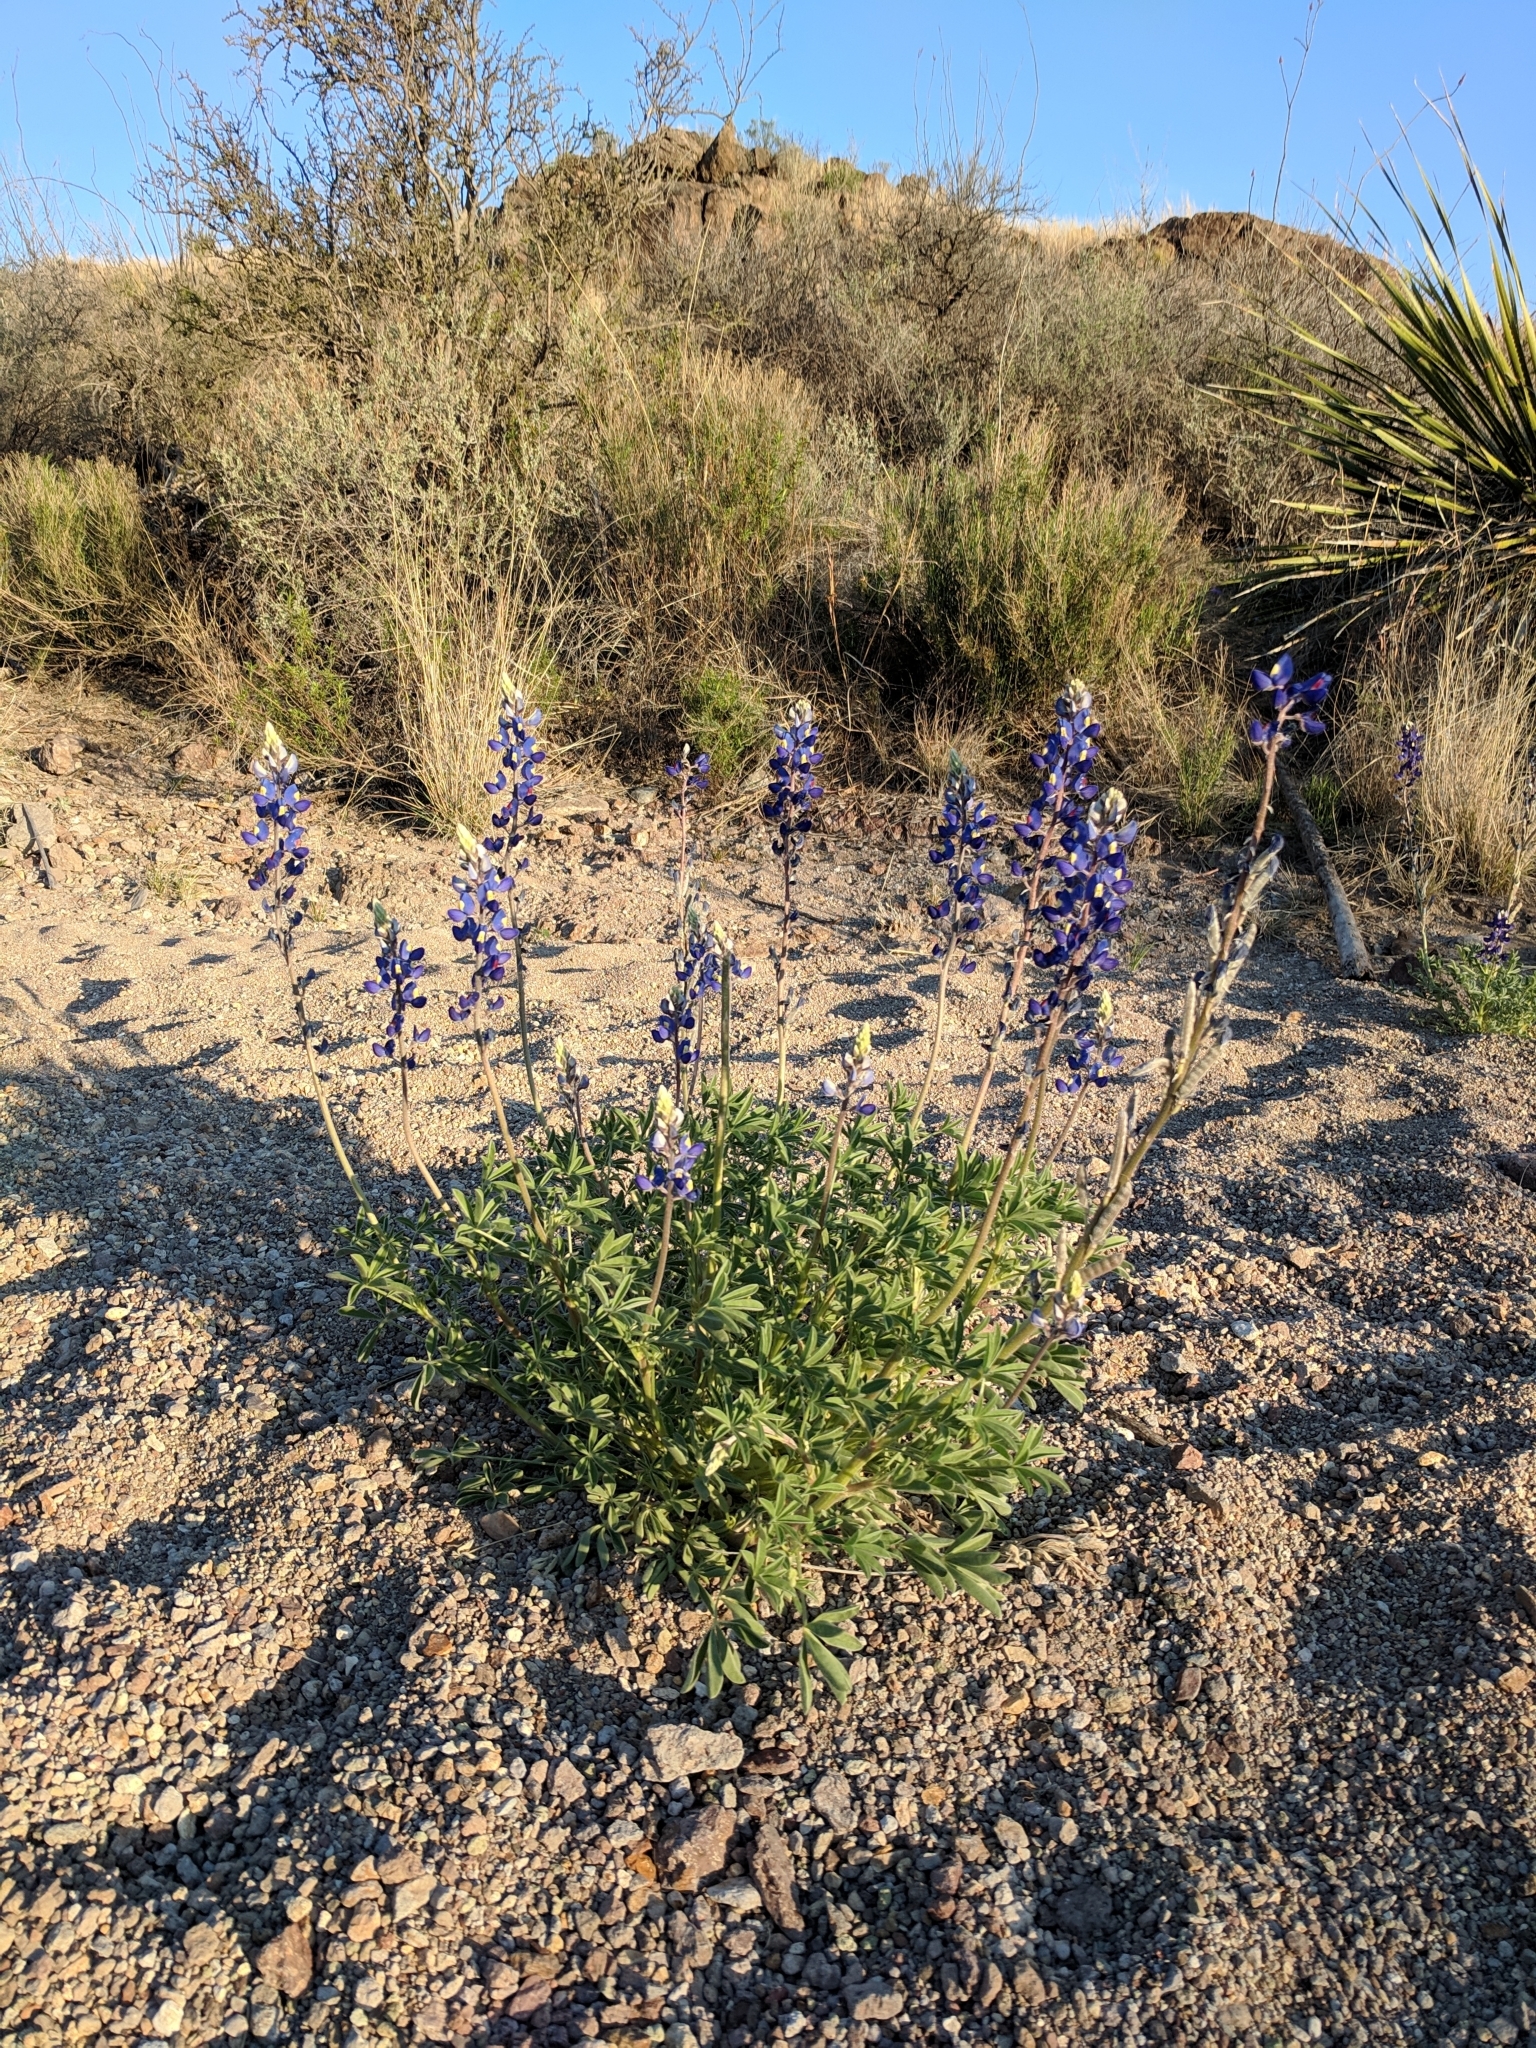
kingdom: Plantae
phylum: Tracheophyta
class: Magnoliopsida
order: Fabales
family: Fabaceae
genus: Lupinus
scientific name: Lupinus havardii
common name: Chisos bluebonnet
